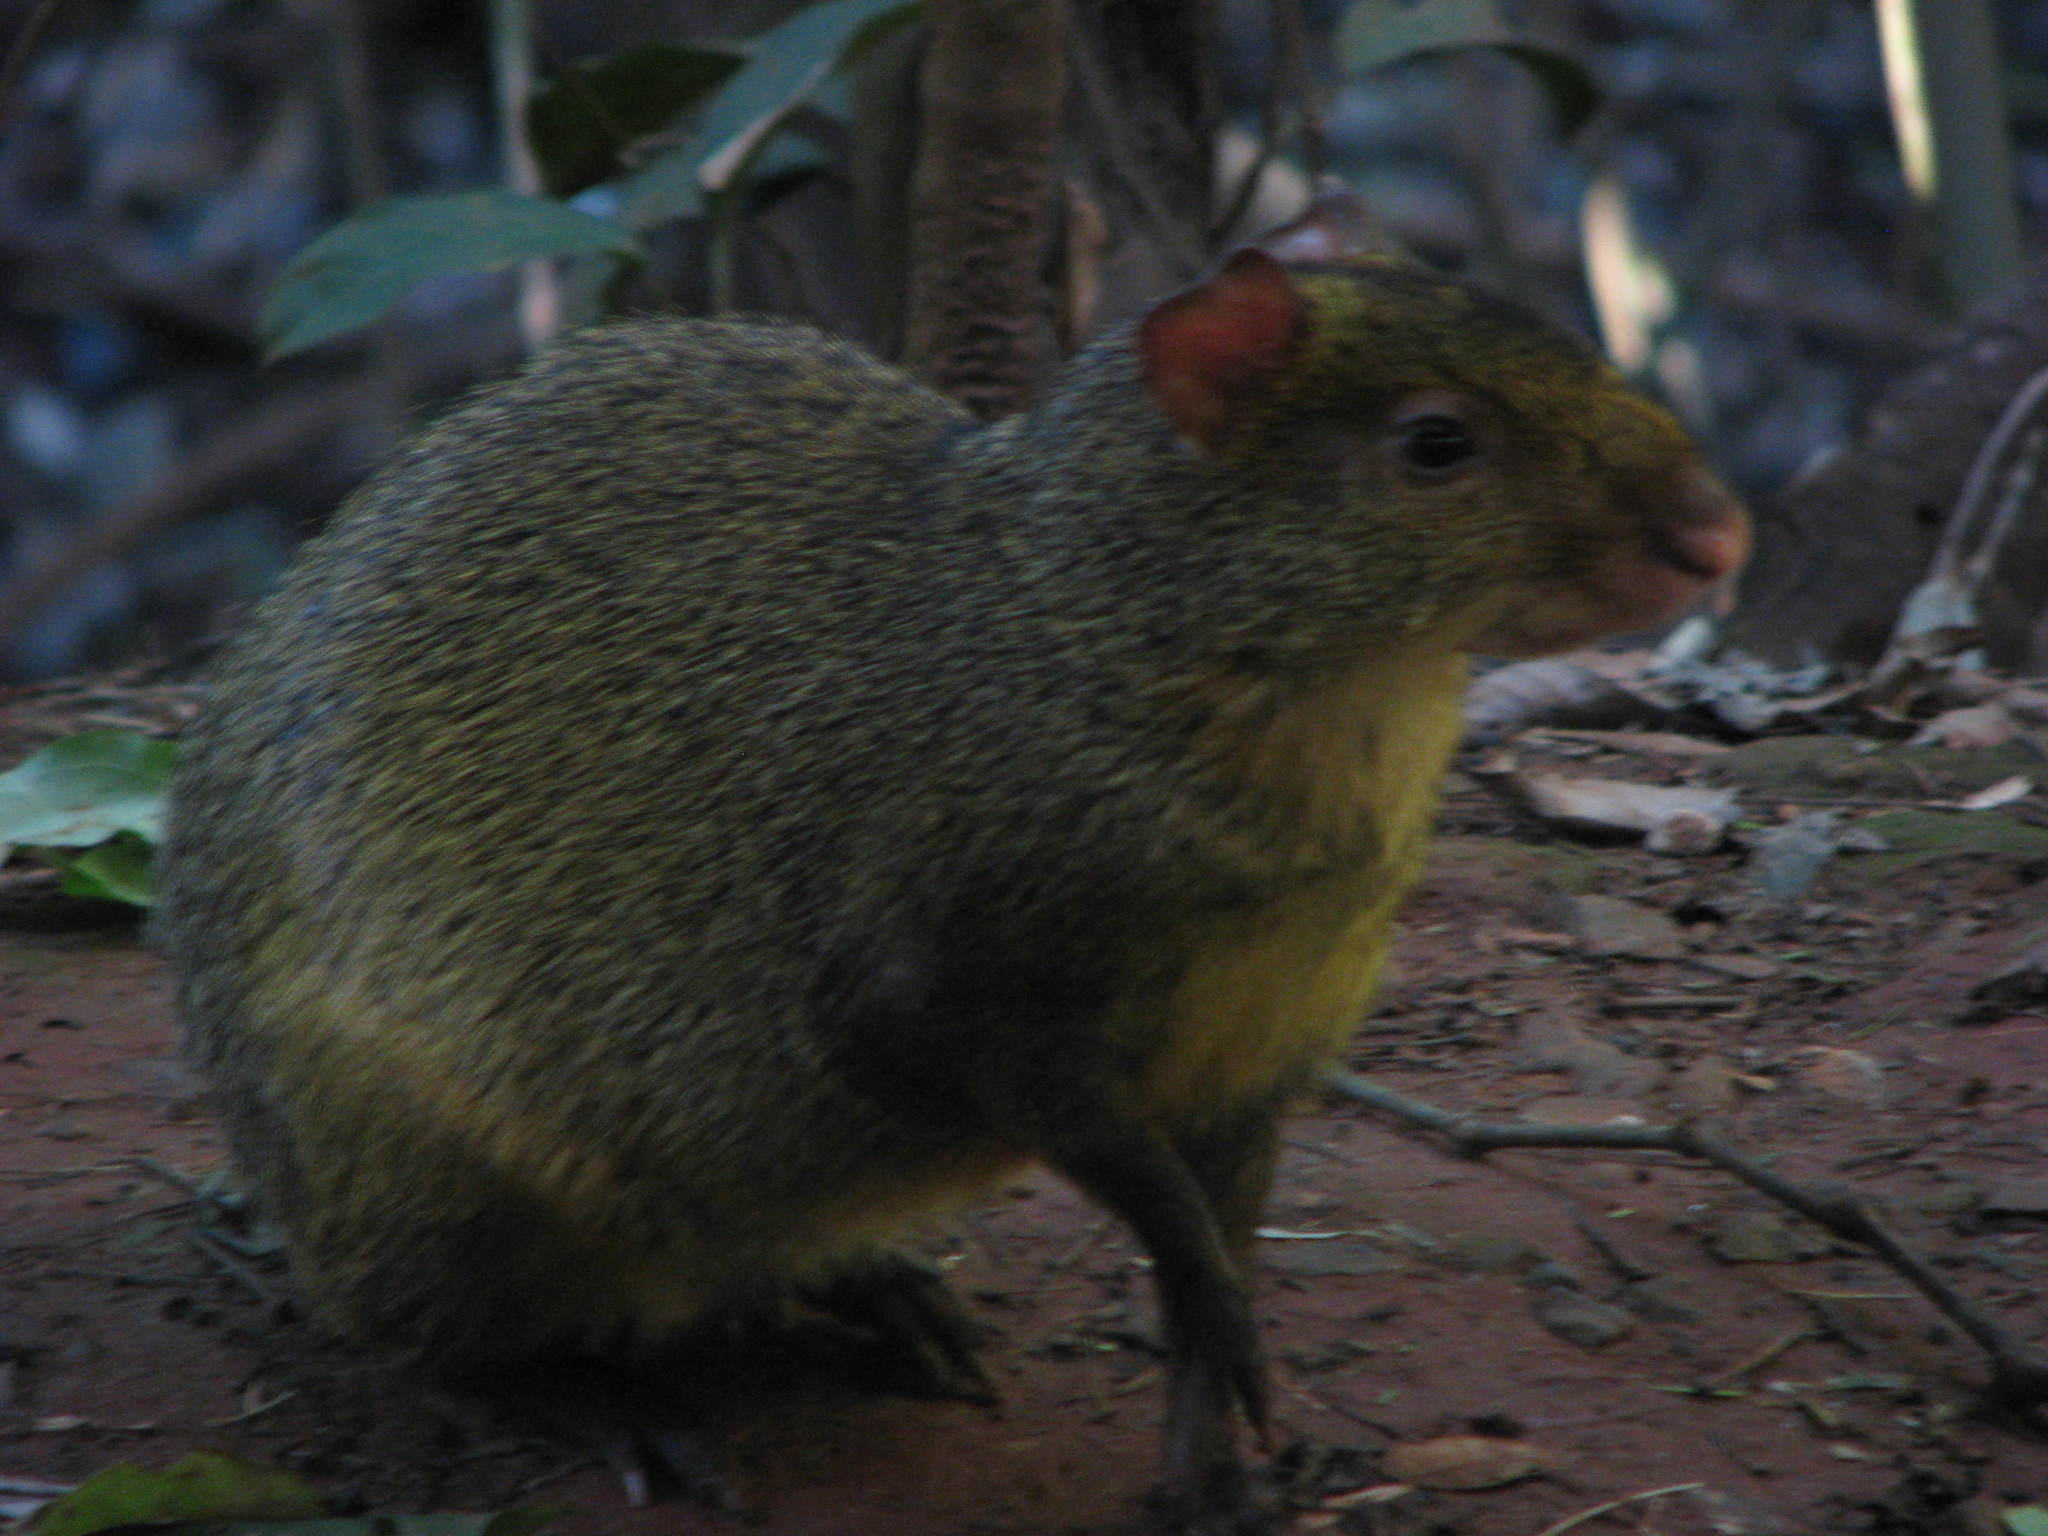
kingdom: Animalia
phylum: Chordata
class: Mammalia
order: Rodentia
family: Dasyproctidae
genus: Dasyprocta
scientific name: Dasyprocta azarae
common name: Azara's agouti
